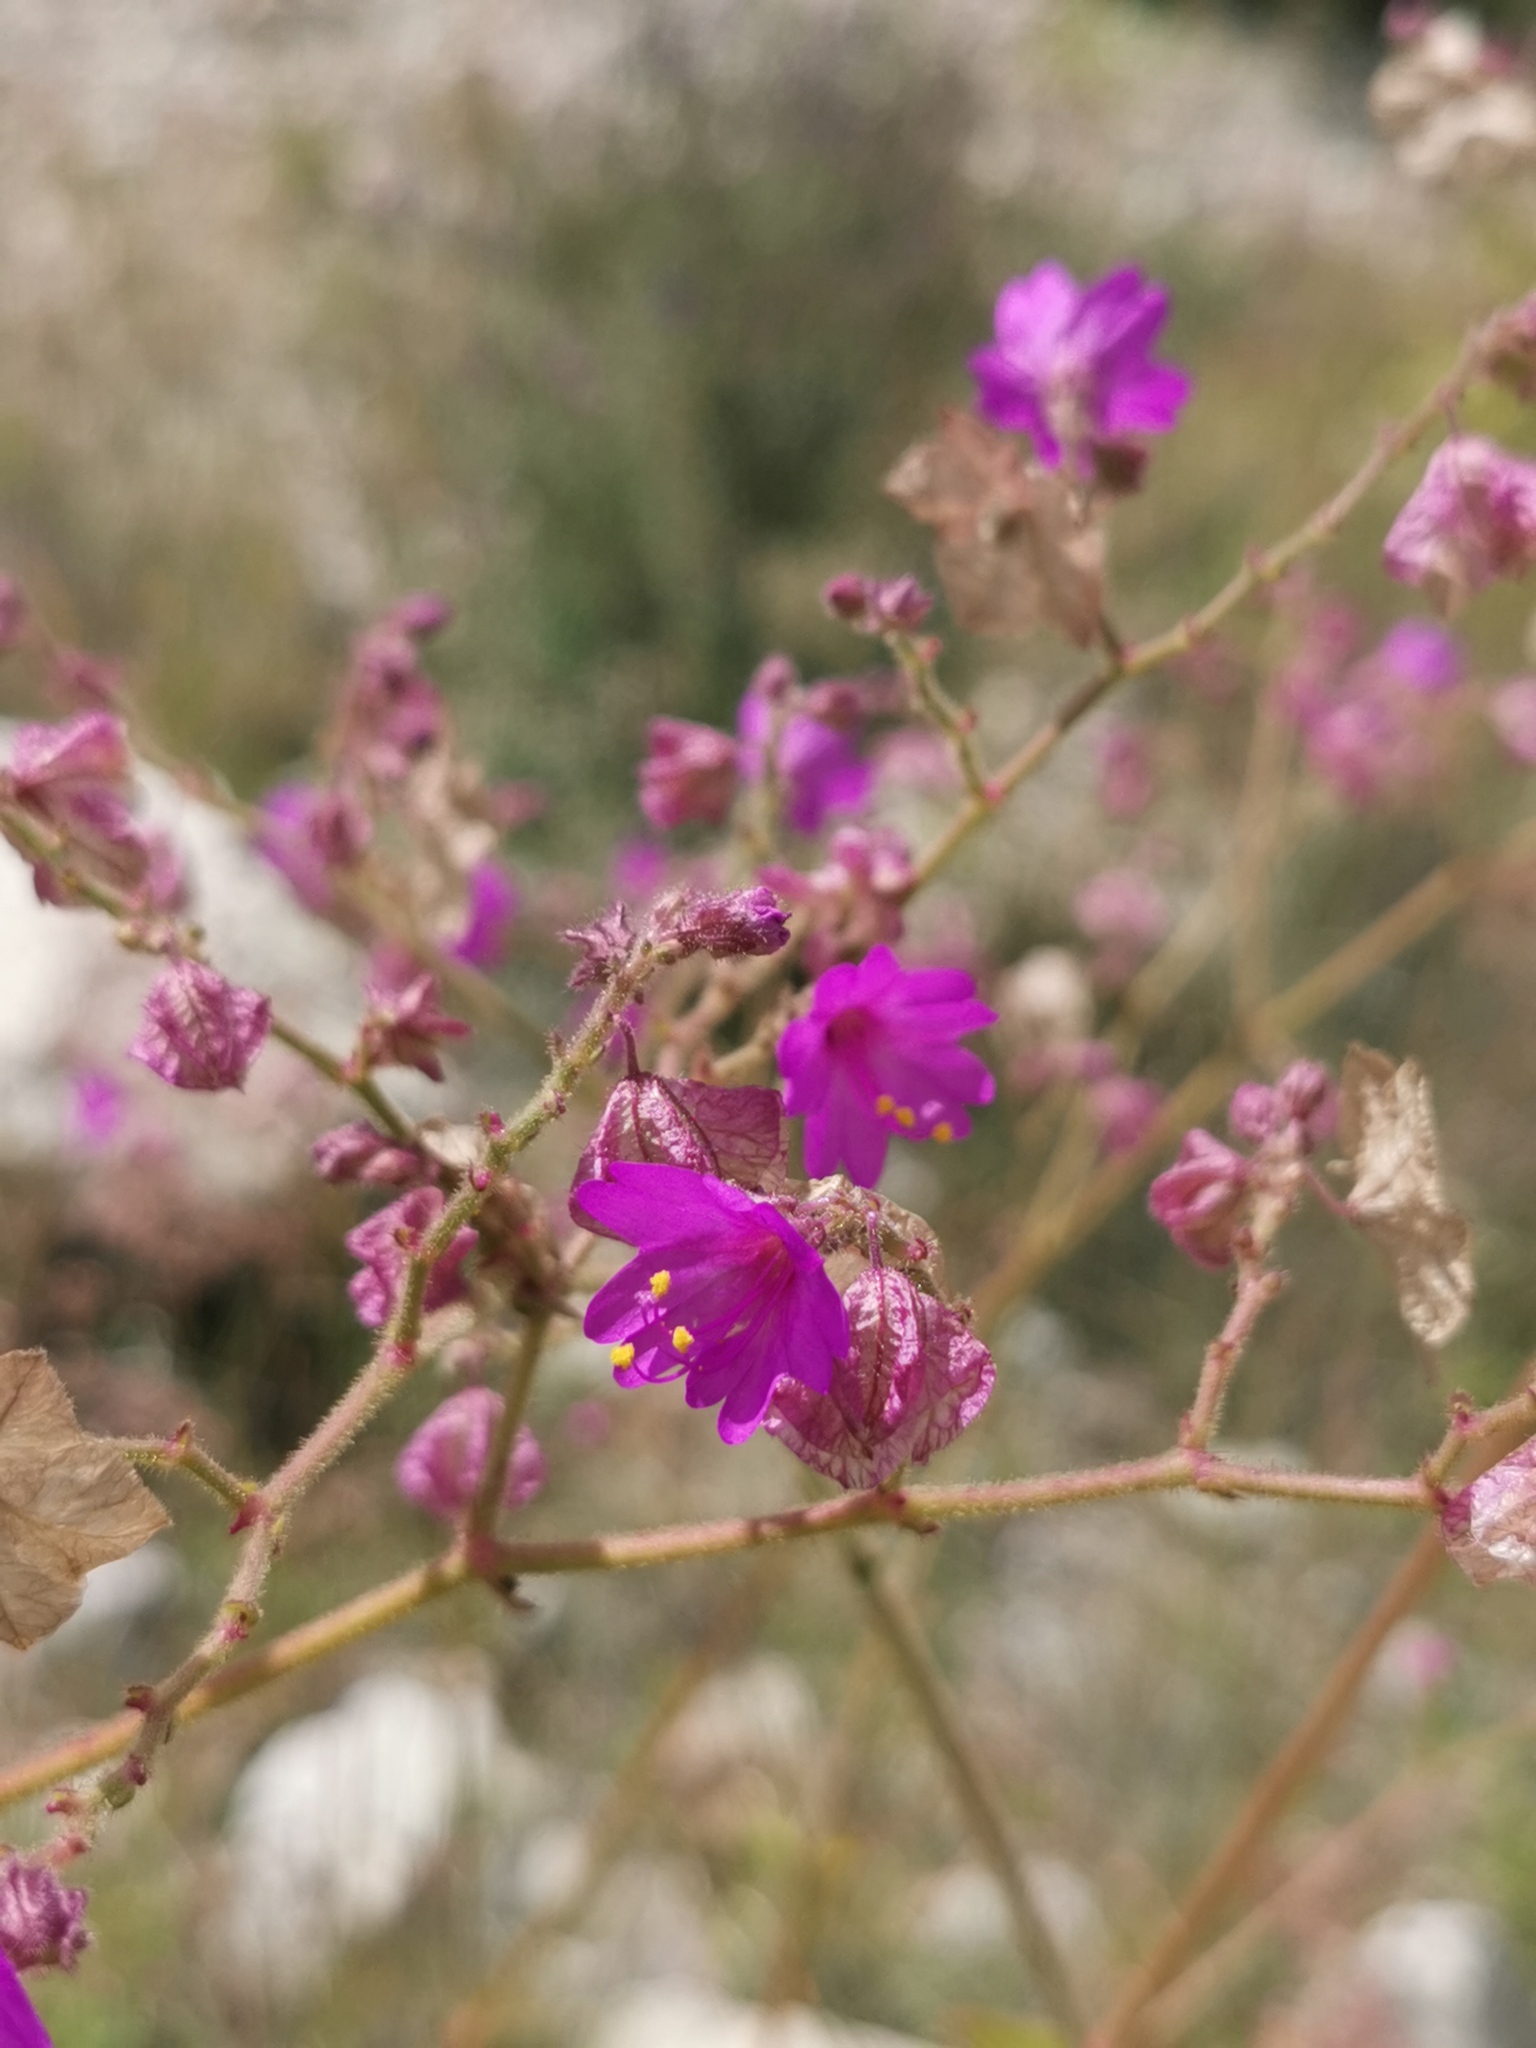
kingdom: Plantae
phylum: Tracheophyta
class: Magnoliopsida
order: Caryophyllales
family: Nyctaginaceae
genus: Mirabilis
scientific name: Mirabilis albida
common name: Hairy four-o'clock
